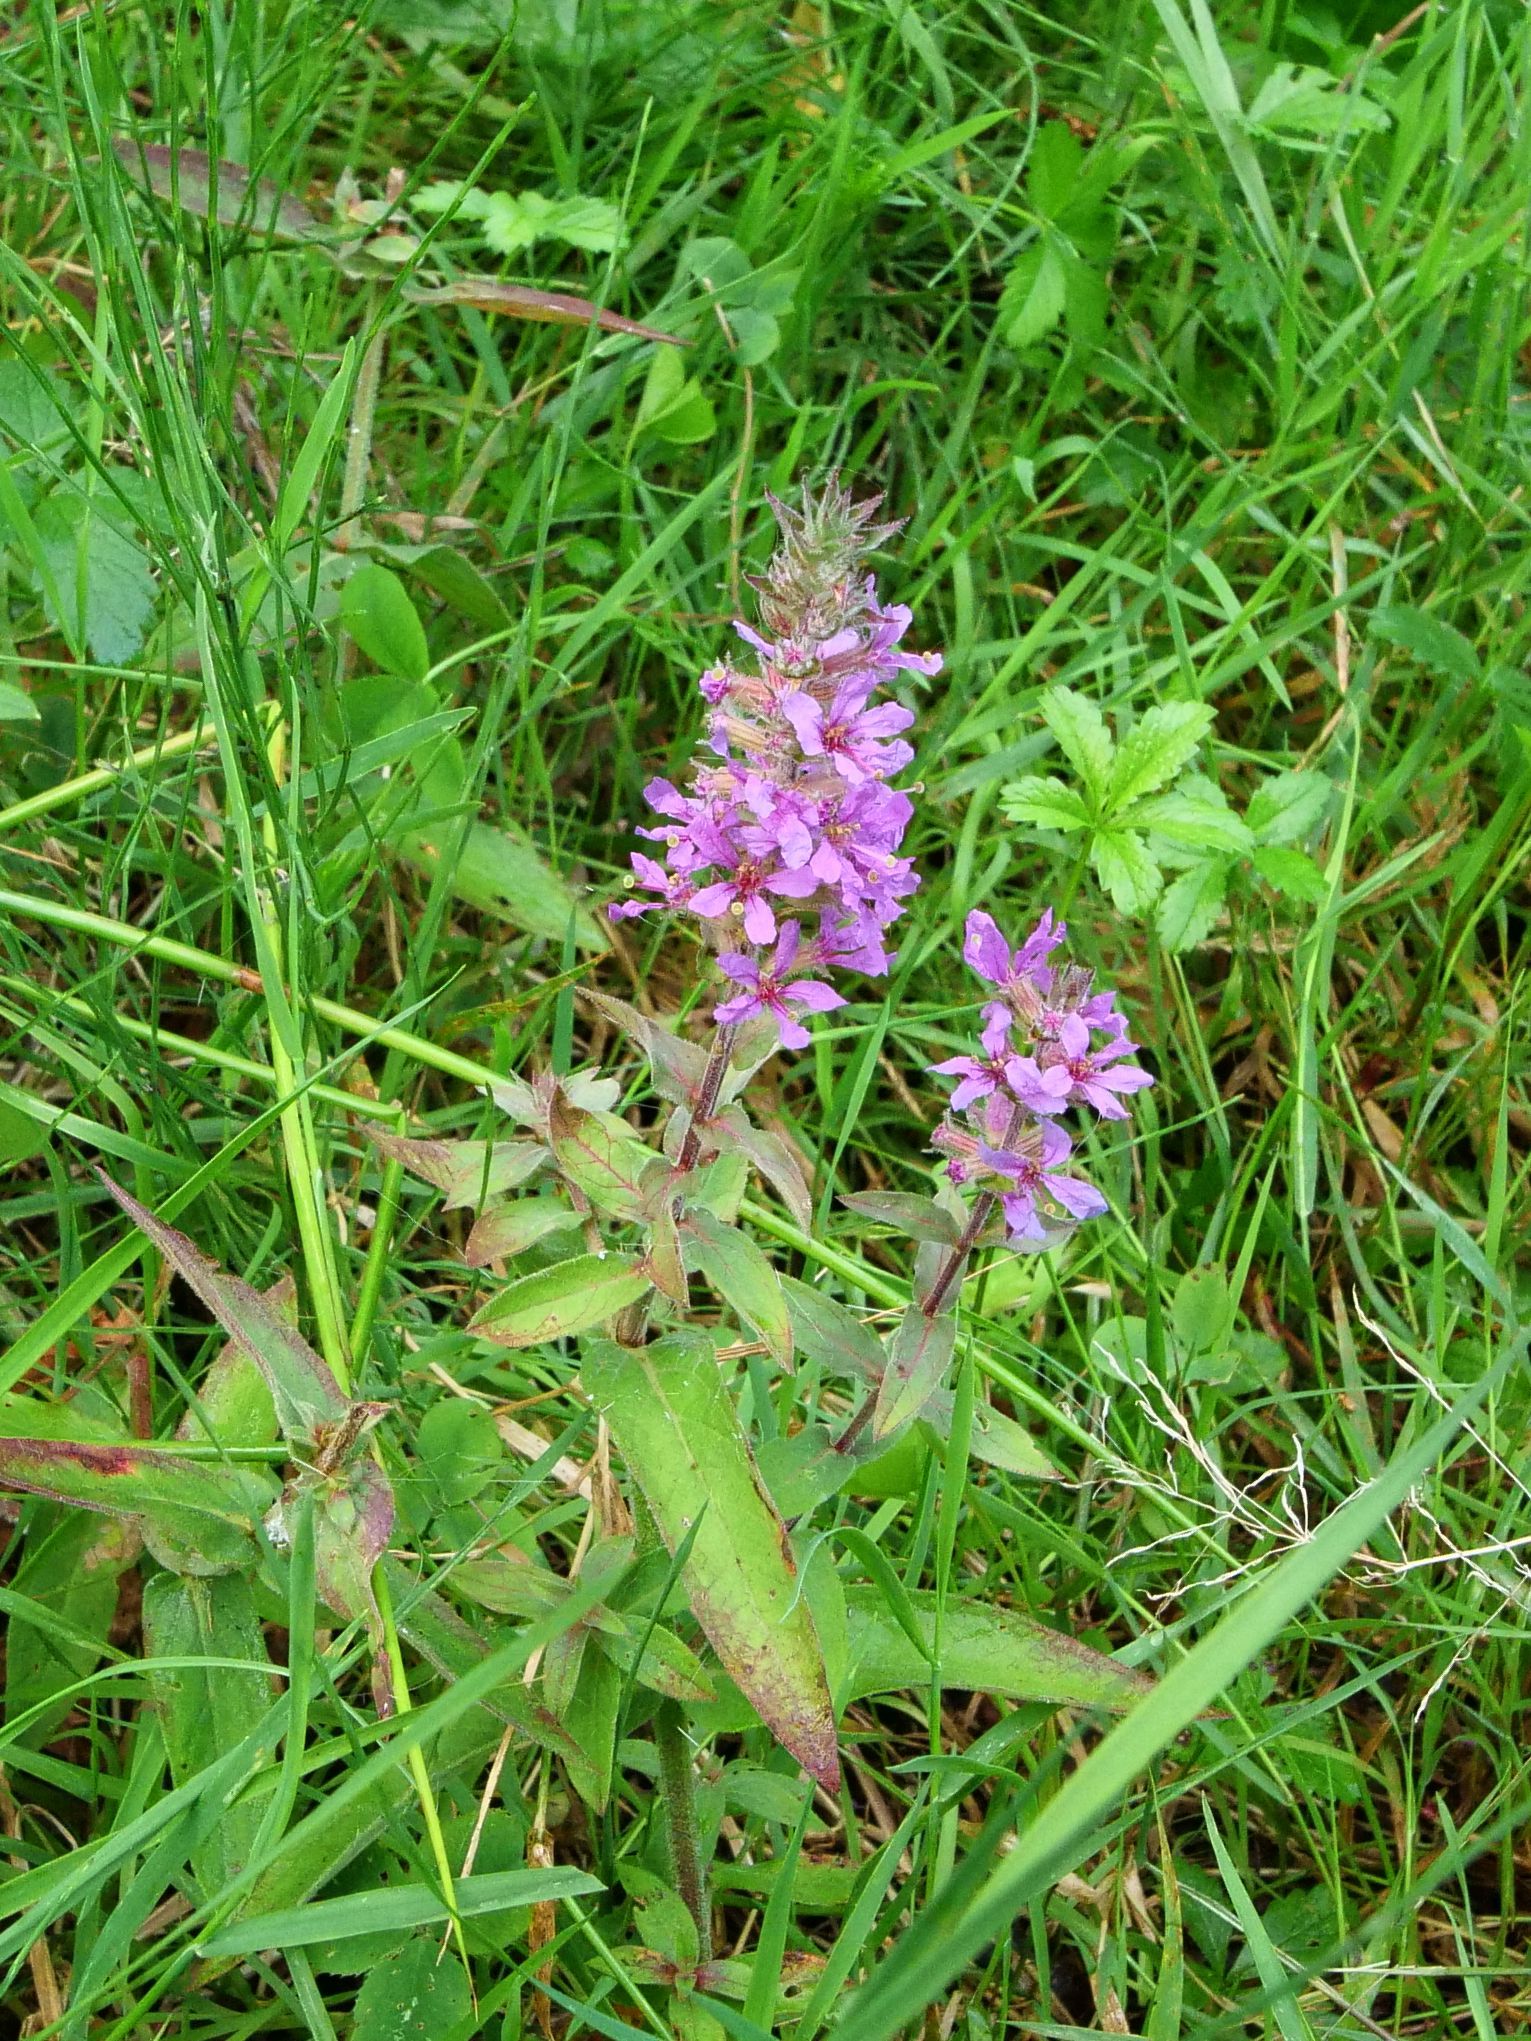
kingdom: Plantae
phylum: Tracheophyta
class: Magnoliopsida
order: Myrtales
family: Lythraceae
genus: Lythrum
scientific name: Lythrum salicaria
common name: Purple loosestrife
